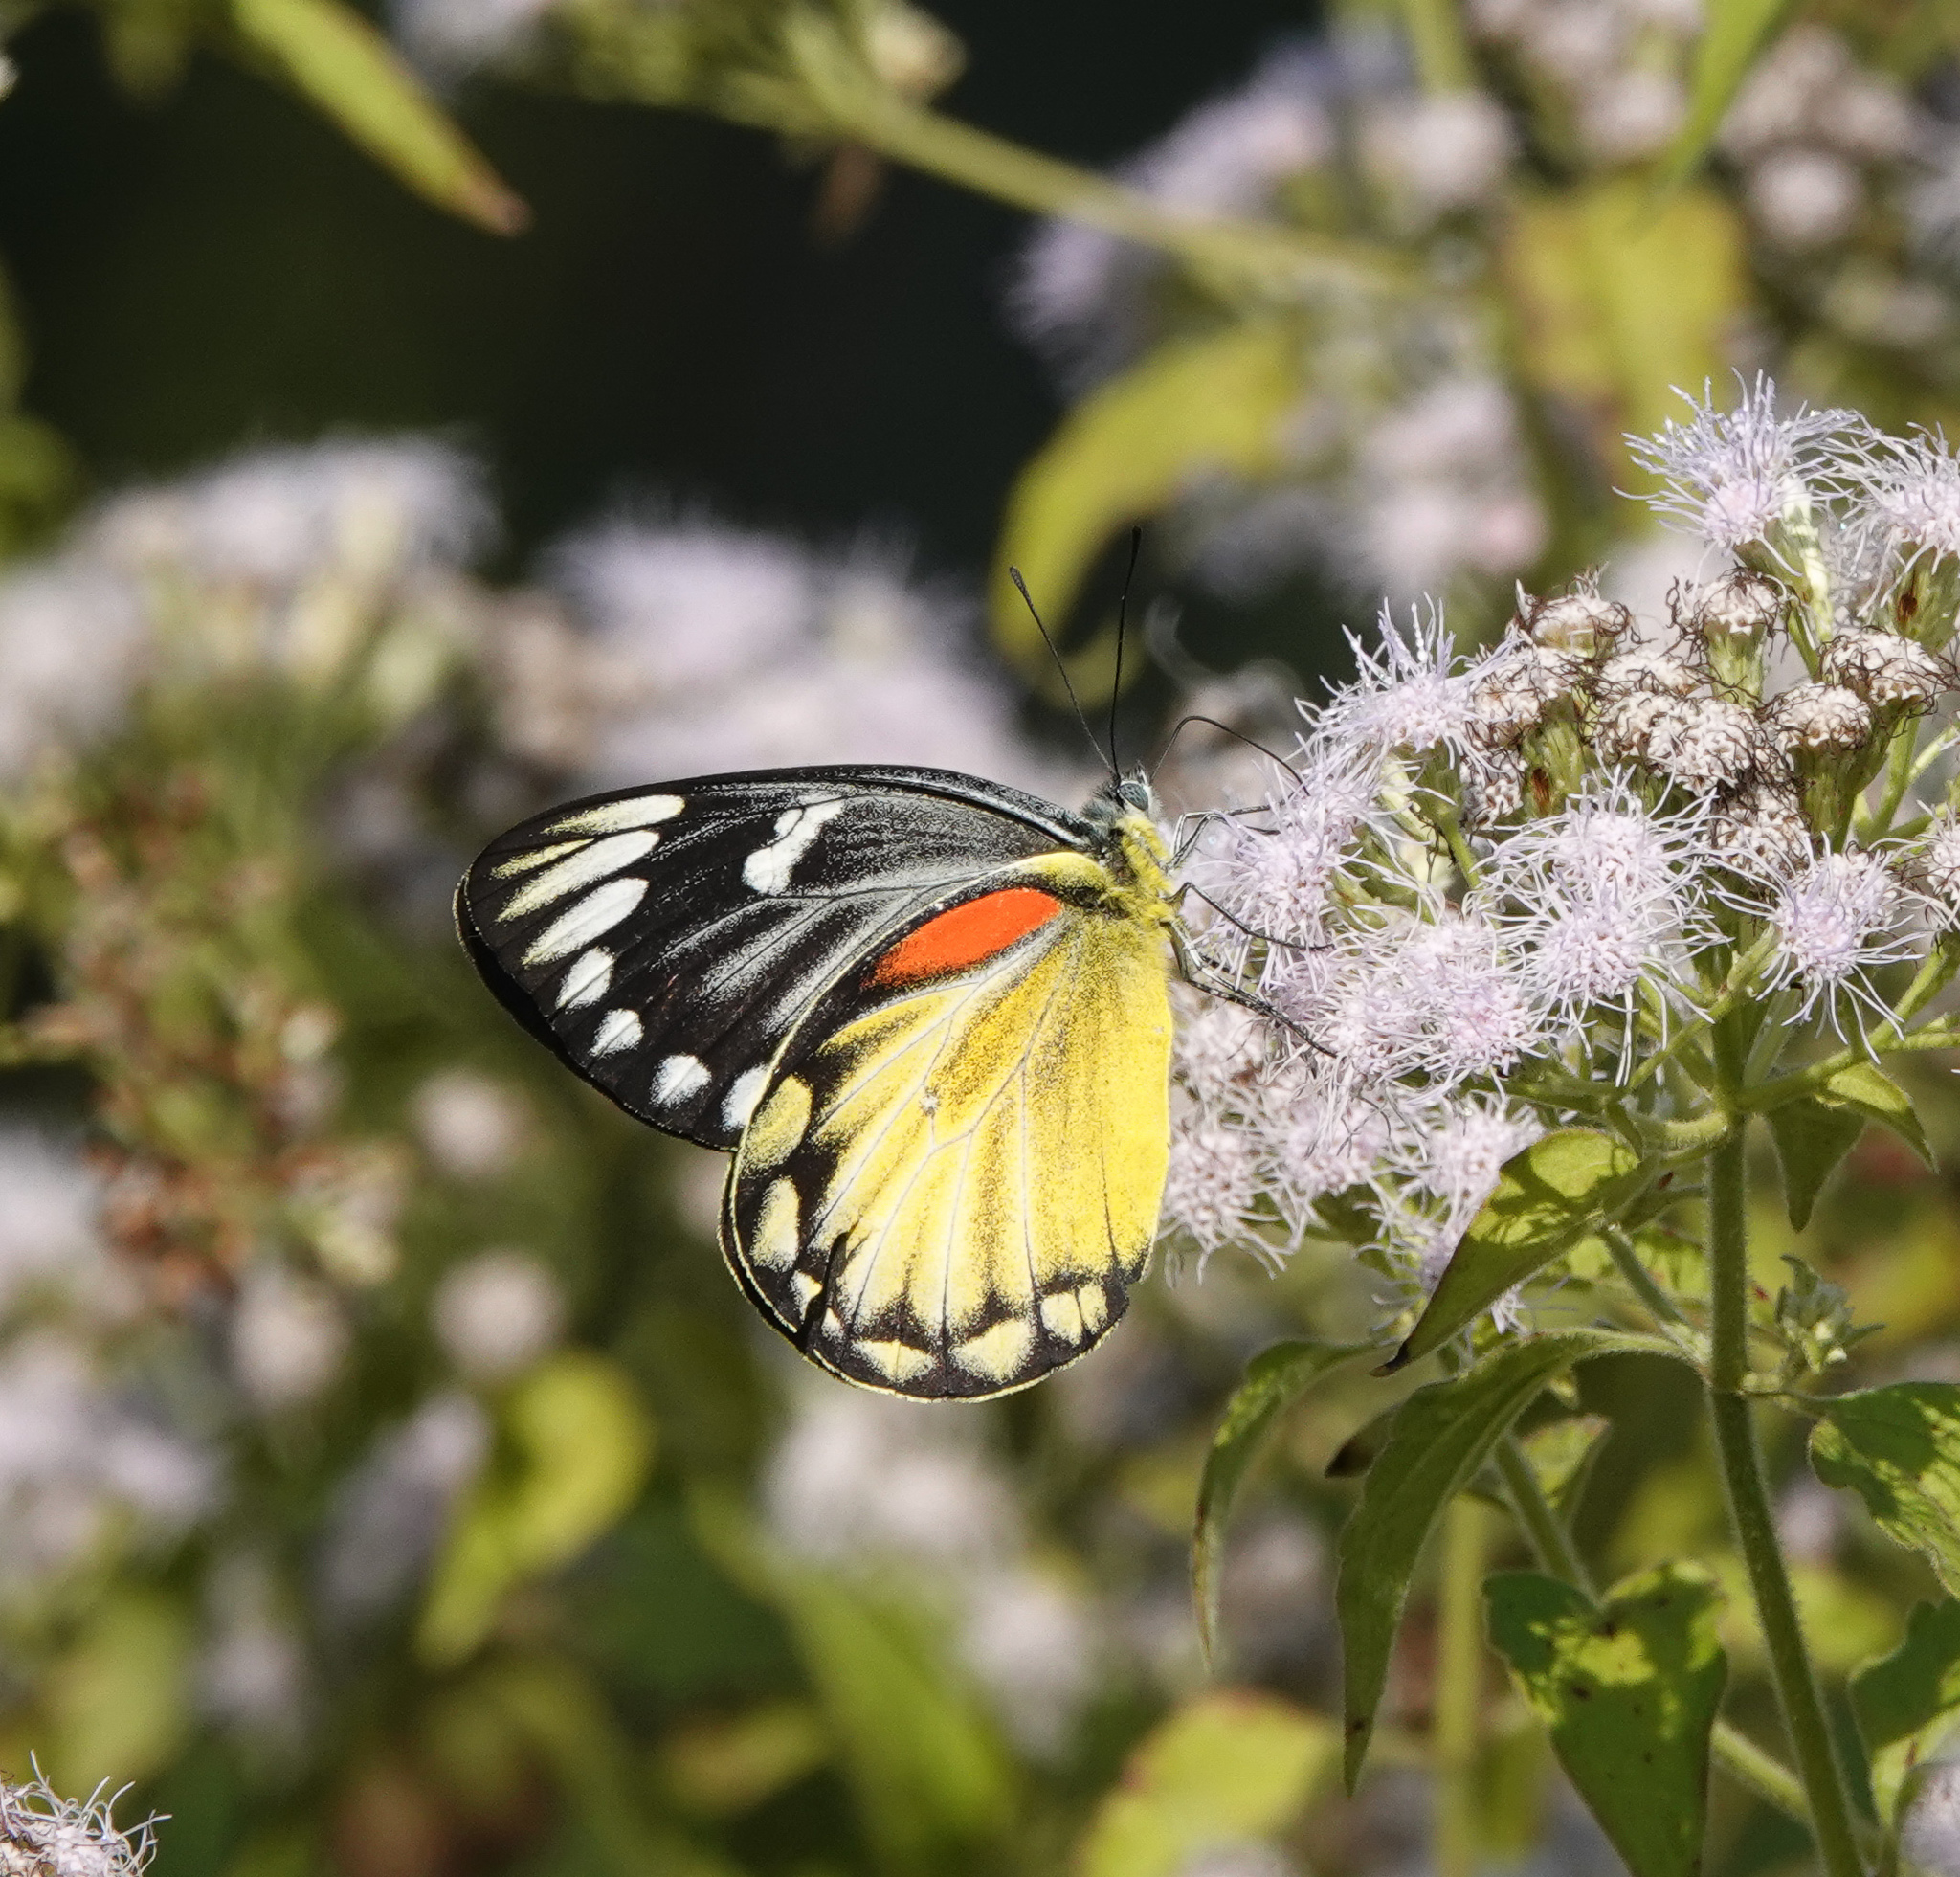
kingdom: Animalia
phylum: Arthropoda
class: Insecta
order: Lepidoptera
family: Pieridae
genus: Delias
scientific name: Delias descombesi
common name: Red-spot jezebel
